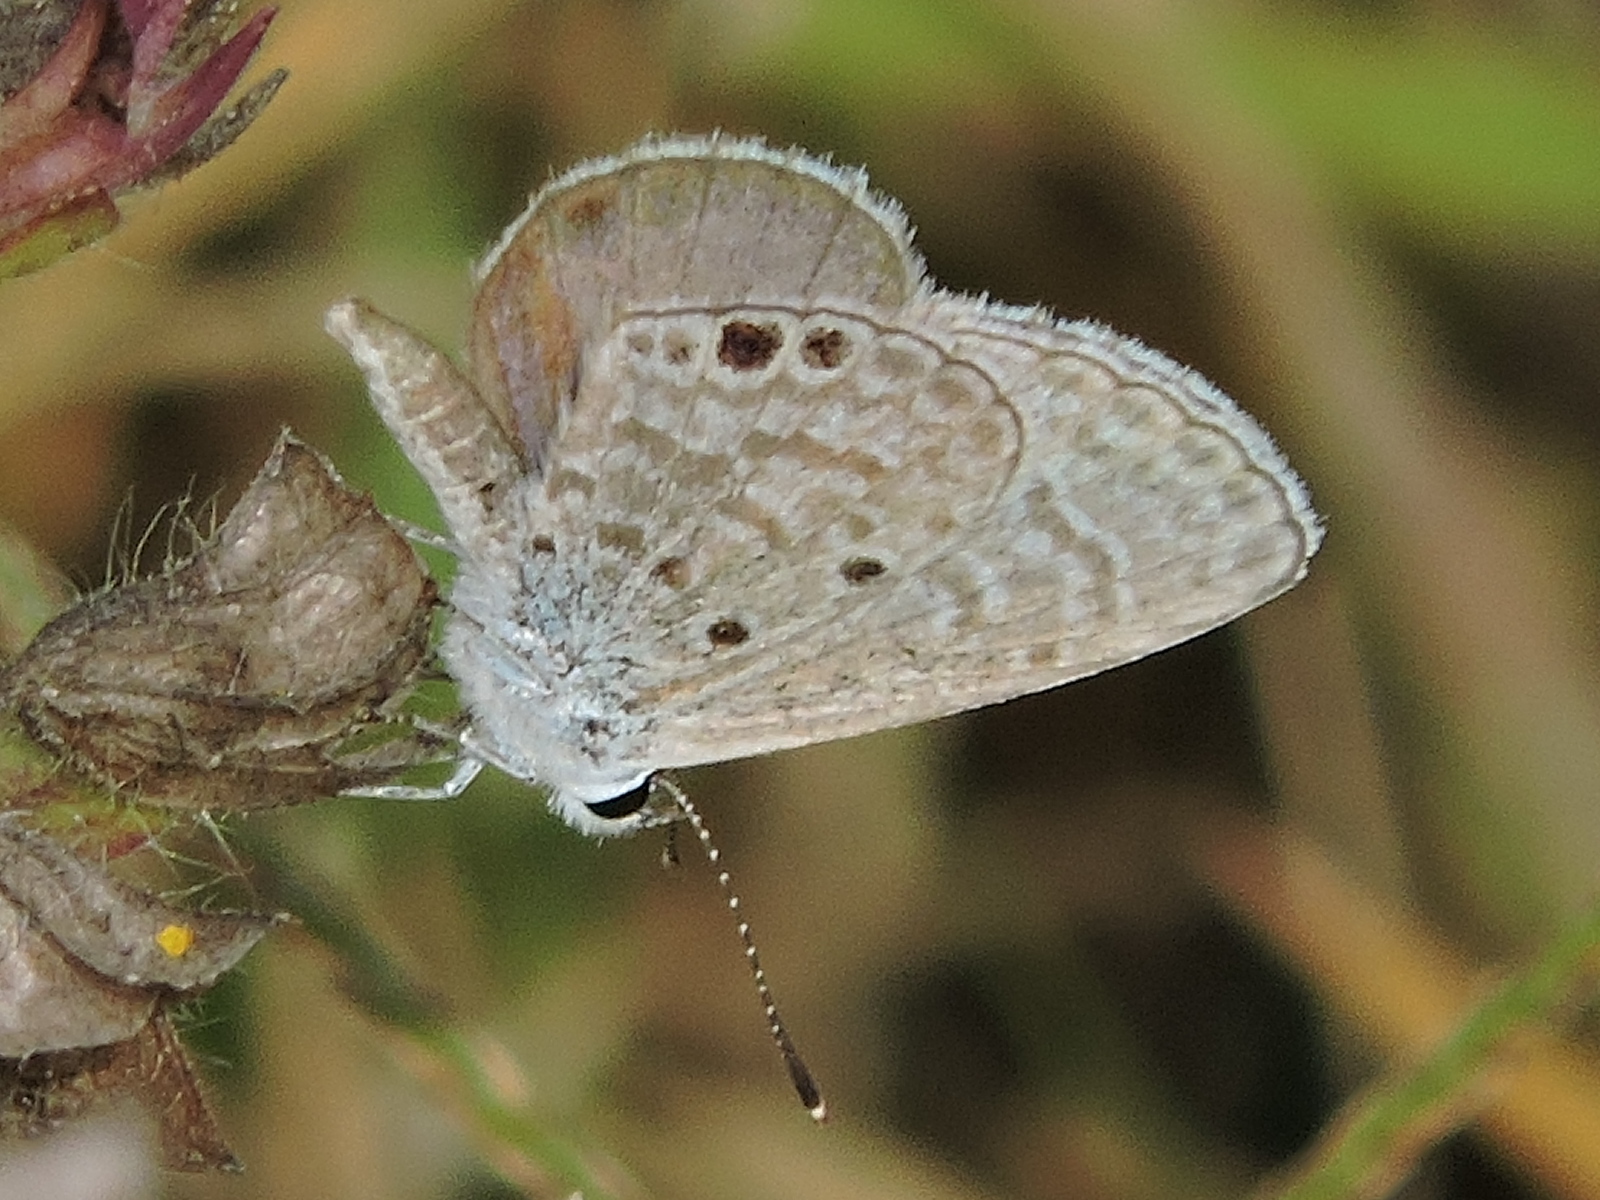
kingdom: Animalia
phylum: Arthropoda
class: Insecta
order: Lepidoptera
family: Lycaenidae
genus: Hemiargus
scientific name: Hemiargus ceraunus
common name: Ceraunus blue
